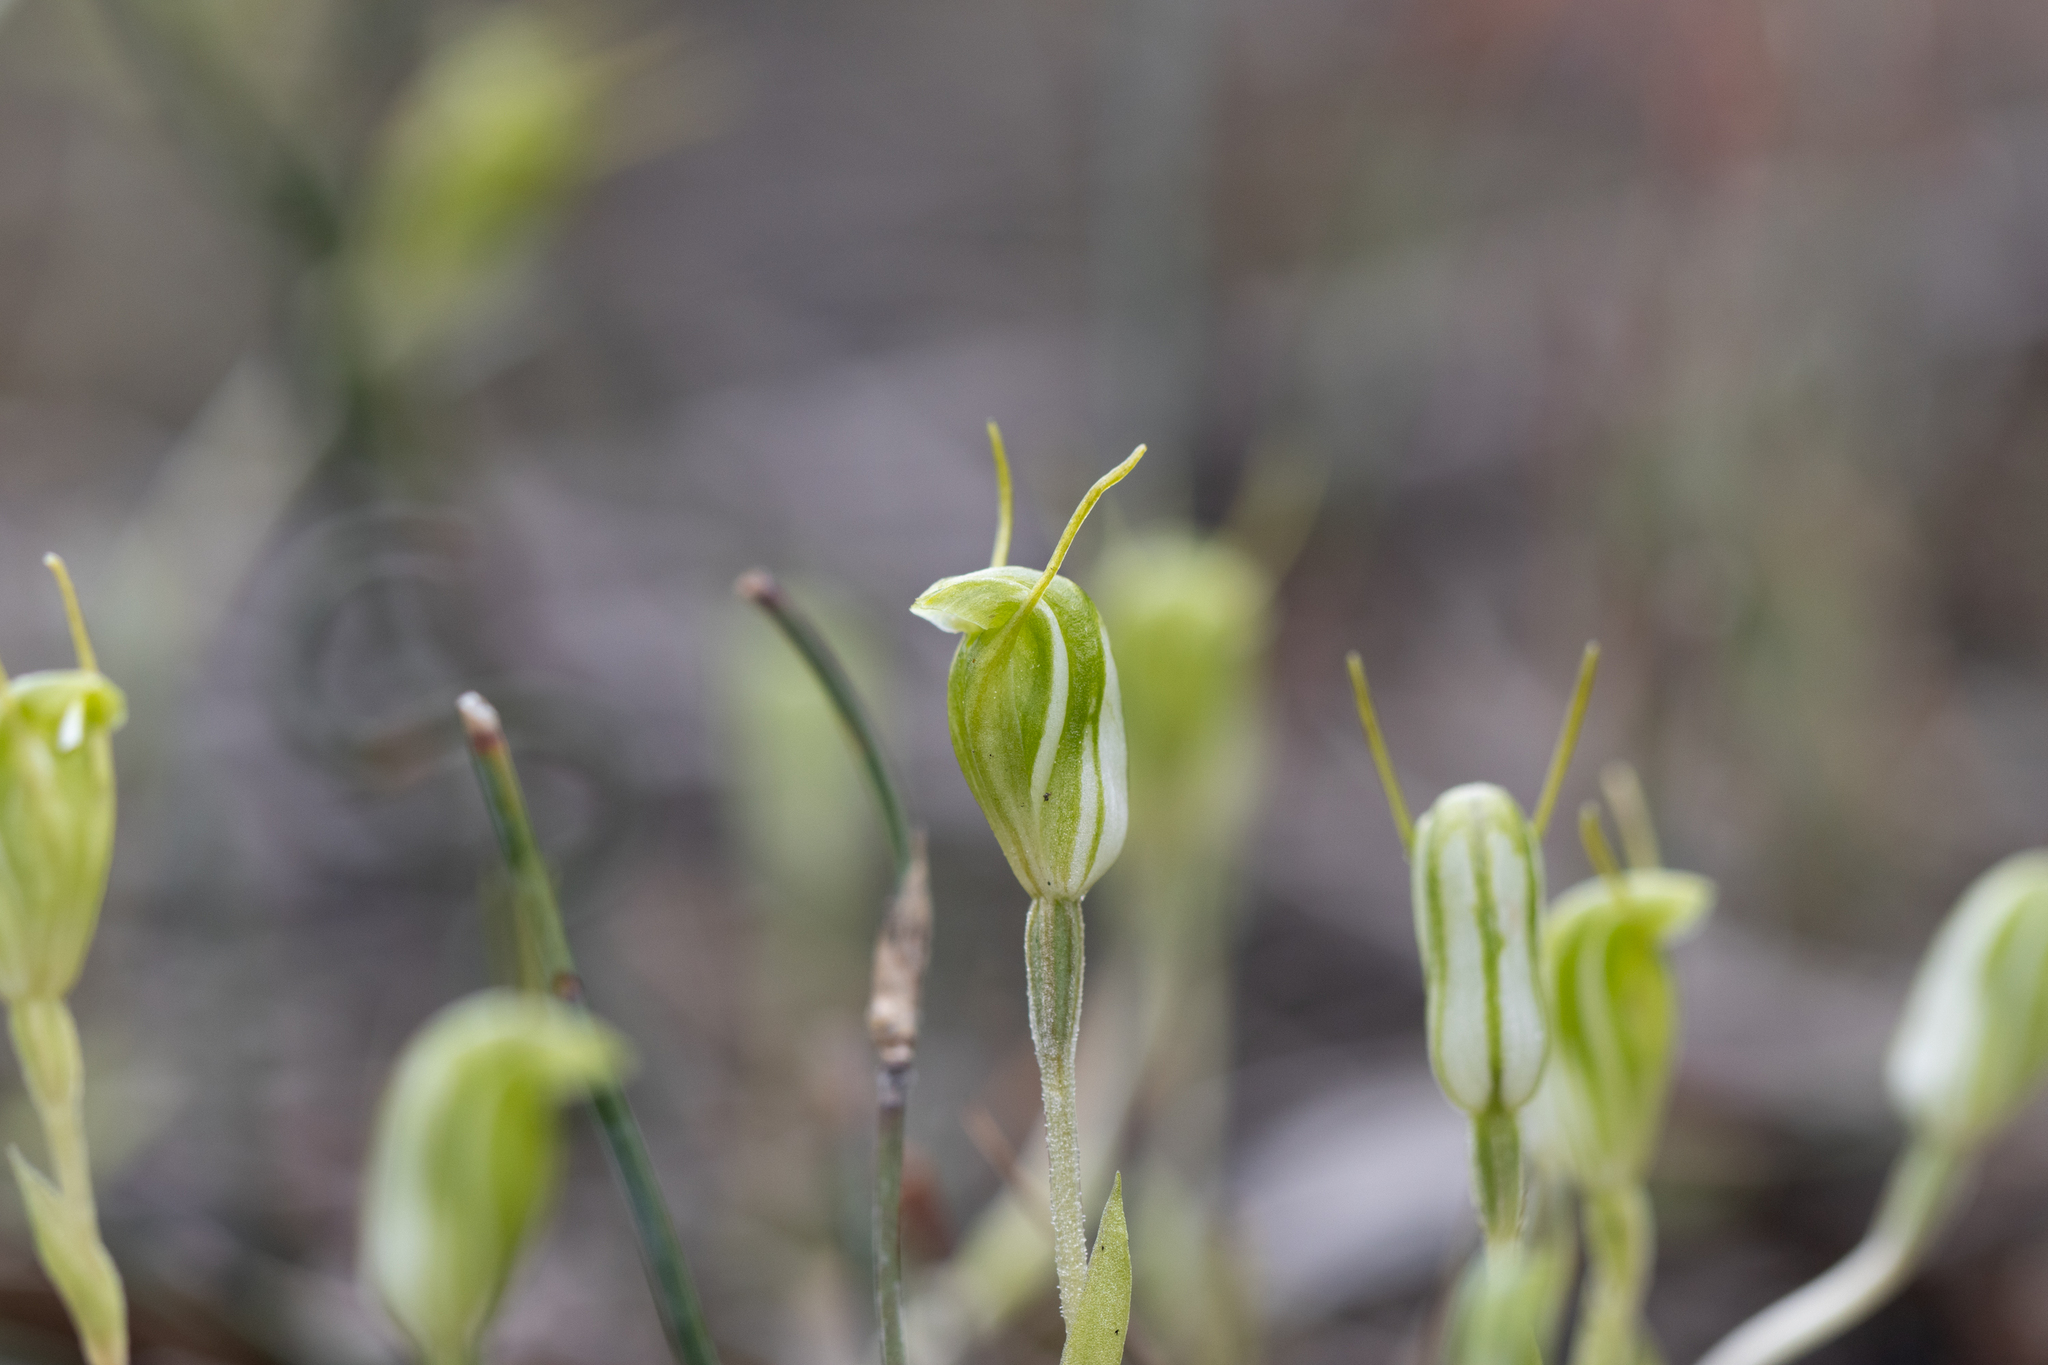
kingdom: Plantae
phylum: Tracheophyta
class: Liliopsida
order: Asparagales
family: Orchidaceae
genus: Pterostylis
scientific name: Pterostylis nana
